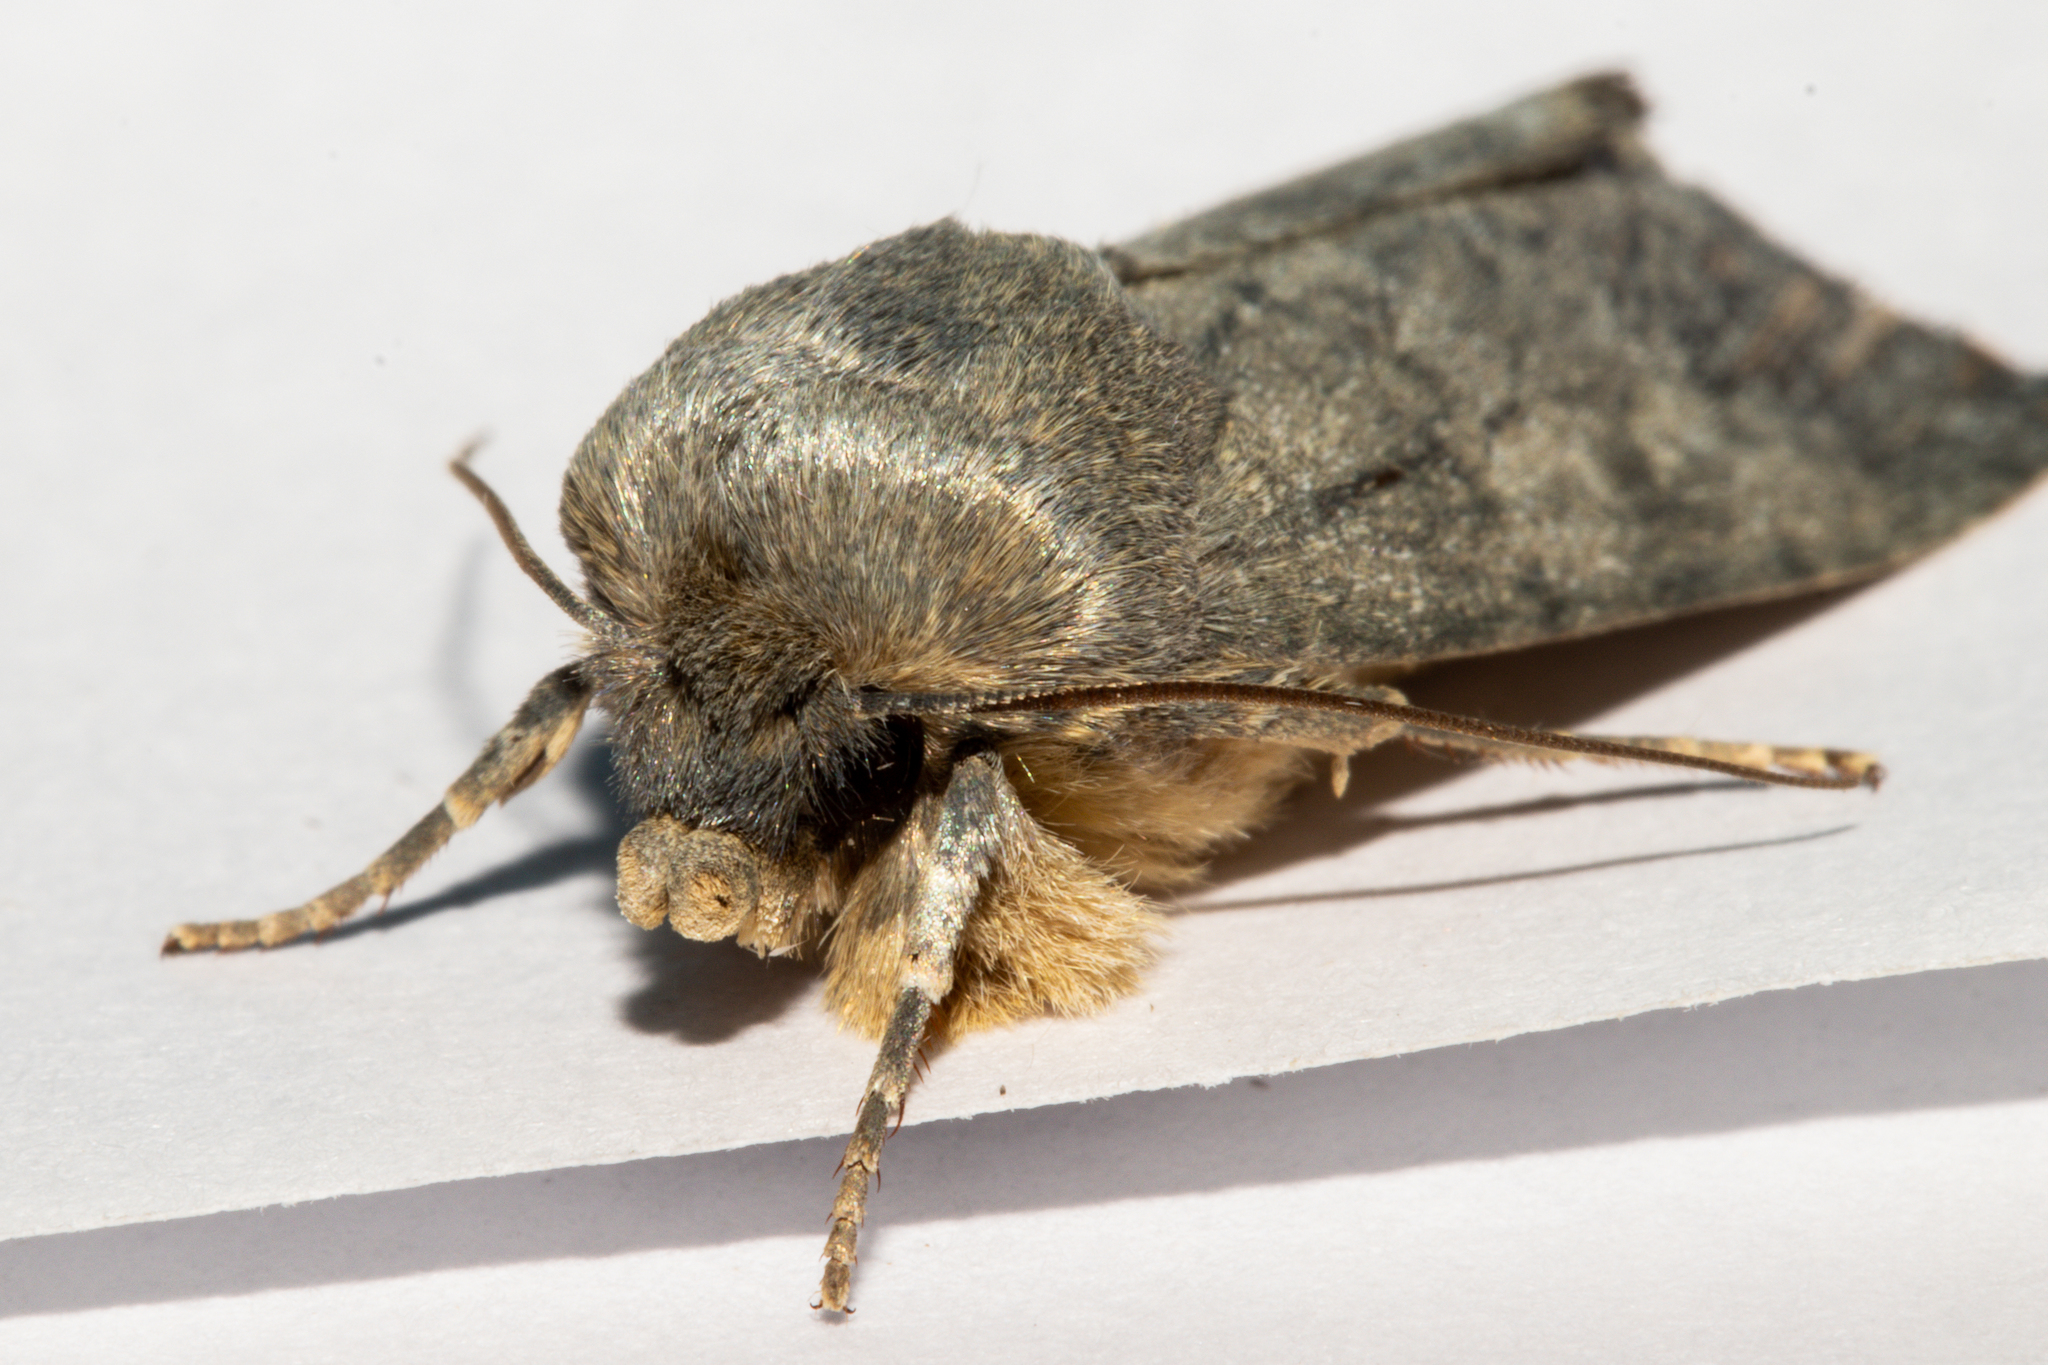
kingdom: Animalia
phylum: Arthropoda
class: Insecta
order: Lepidoptera
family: Noctuidae
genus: Physetica
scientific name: Physetica caerulea
